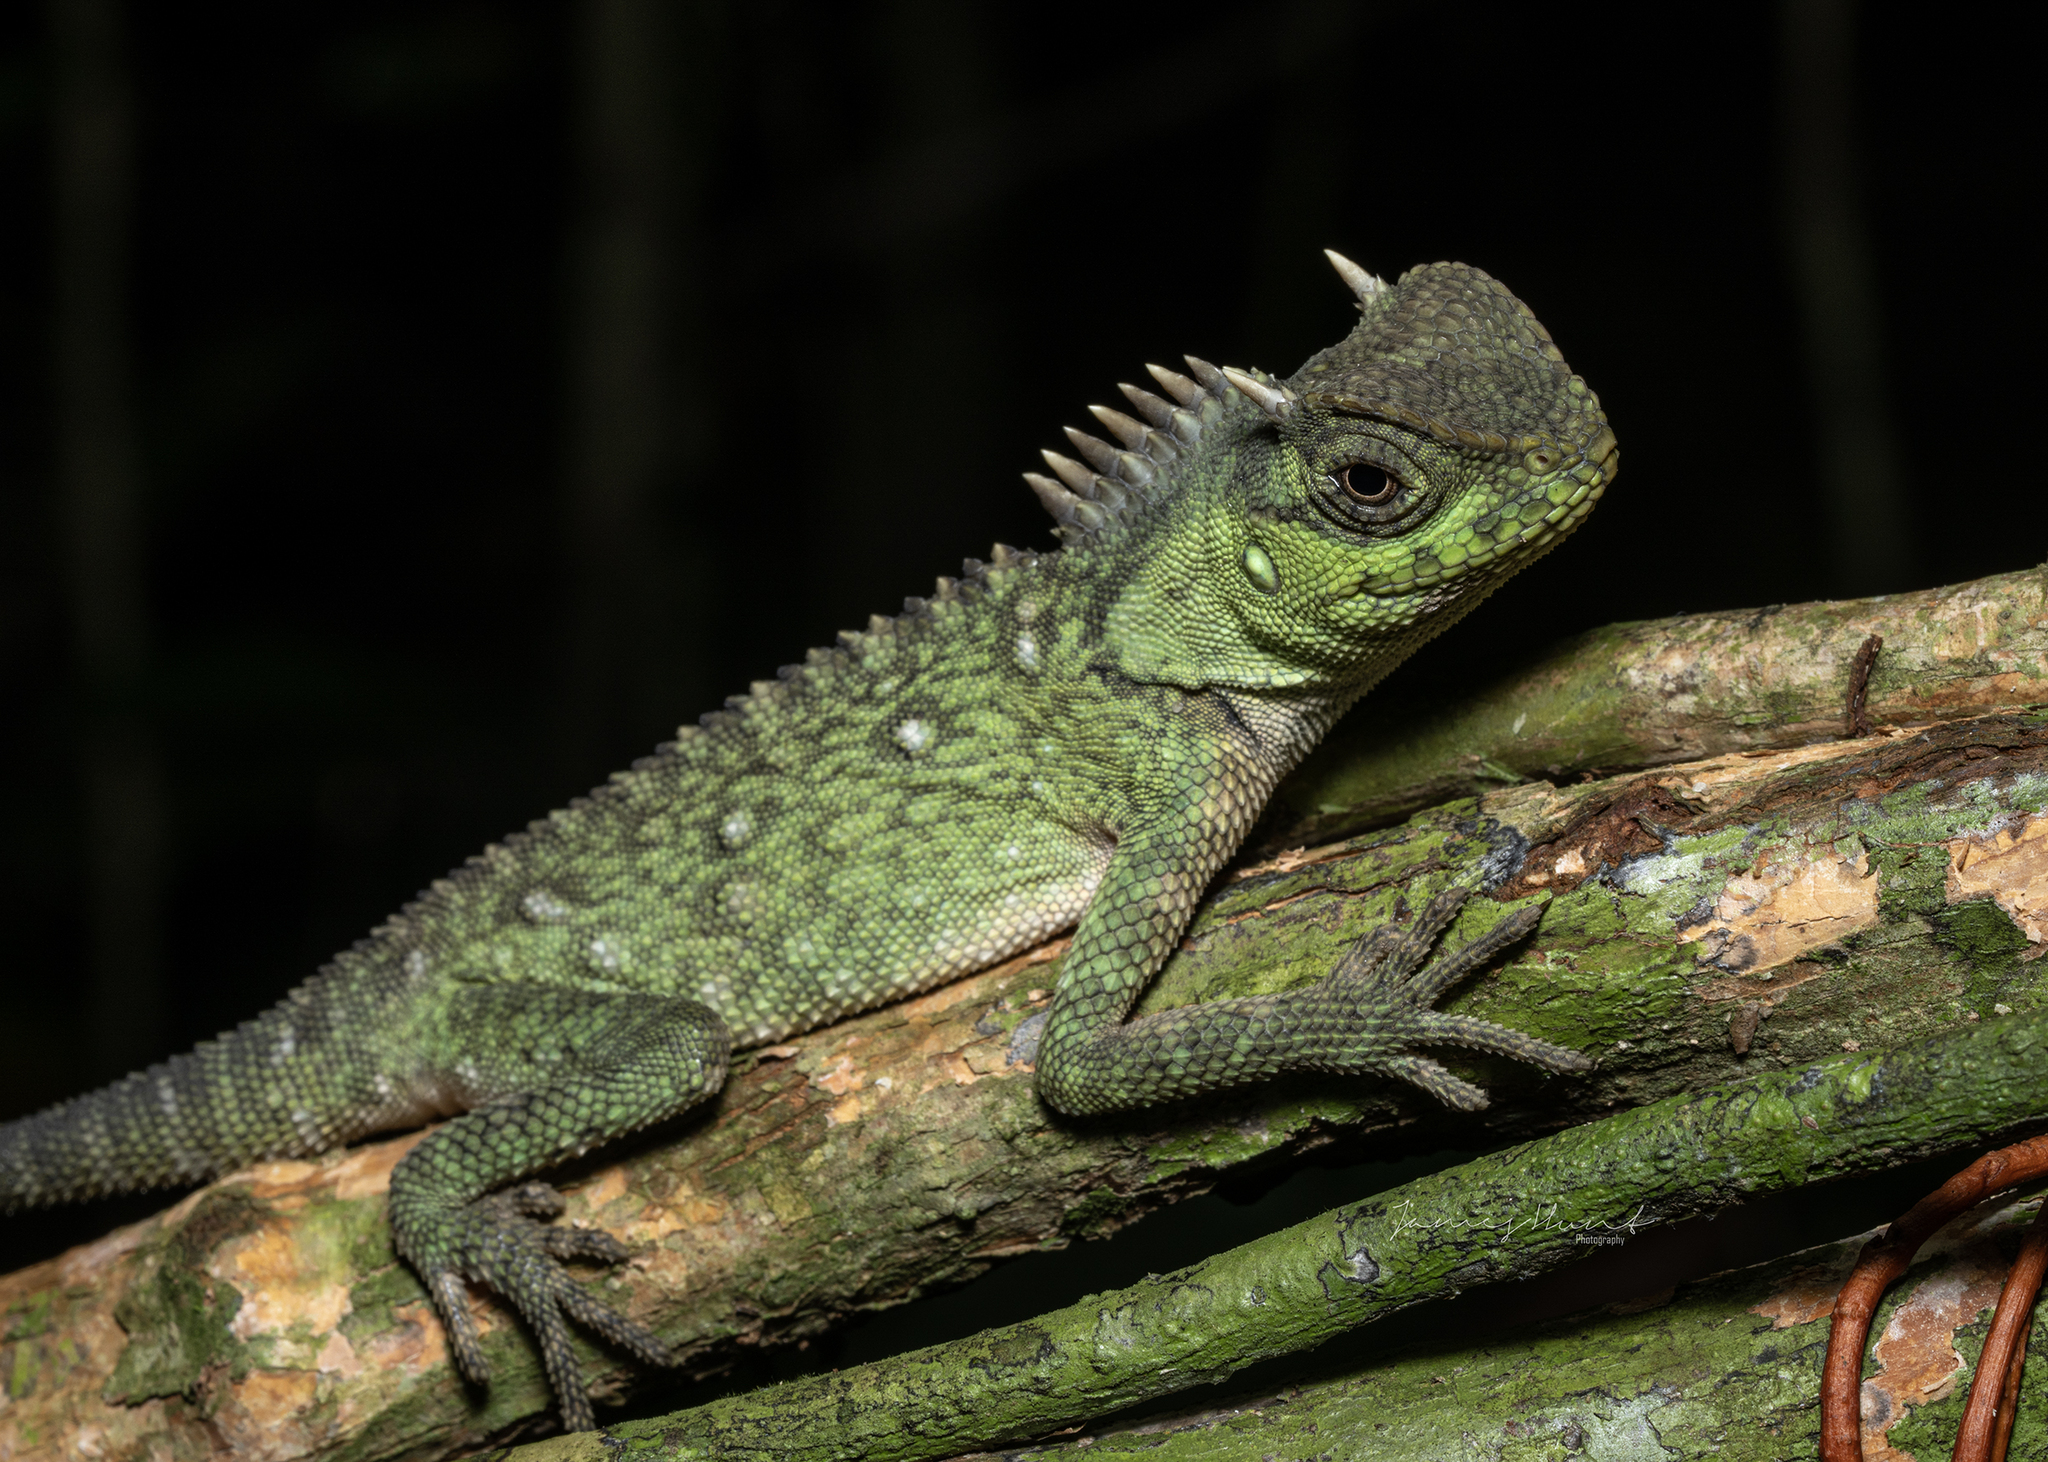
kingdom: Animalia
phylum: Chordata
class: Squamata
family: Agamidae
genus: Acanthosaura
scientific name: Acanthosaura capra
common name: Green pricklenape
